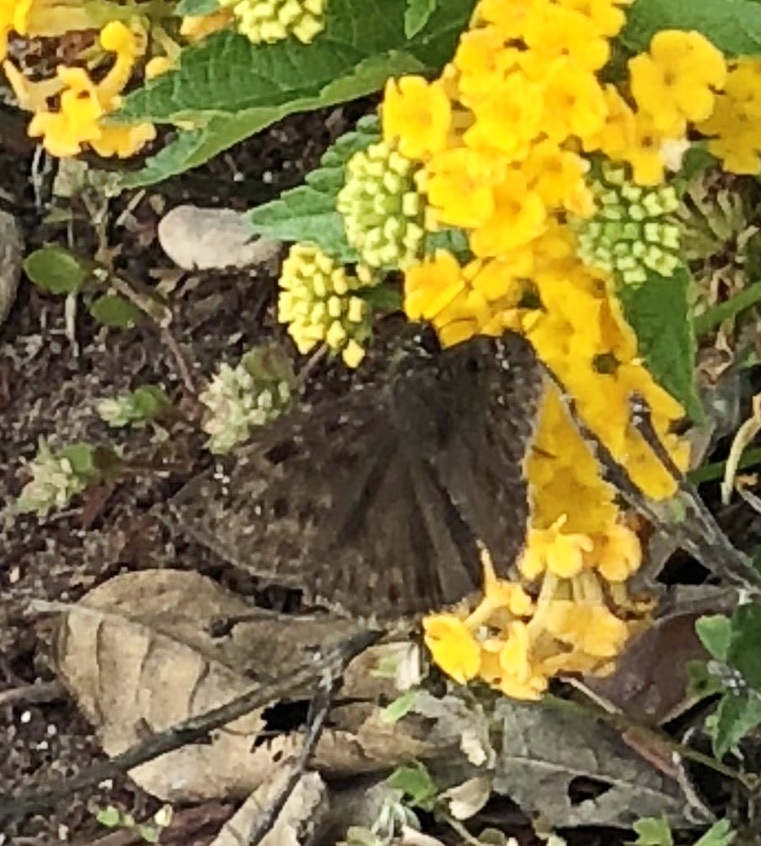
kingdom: Animalia
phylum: Arthropoda
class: Insecta
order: Lepidoptera
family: Hesperiidae
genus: Erynnis
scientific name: Erynnis horatius
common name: Horace's duskywing
